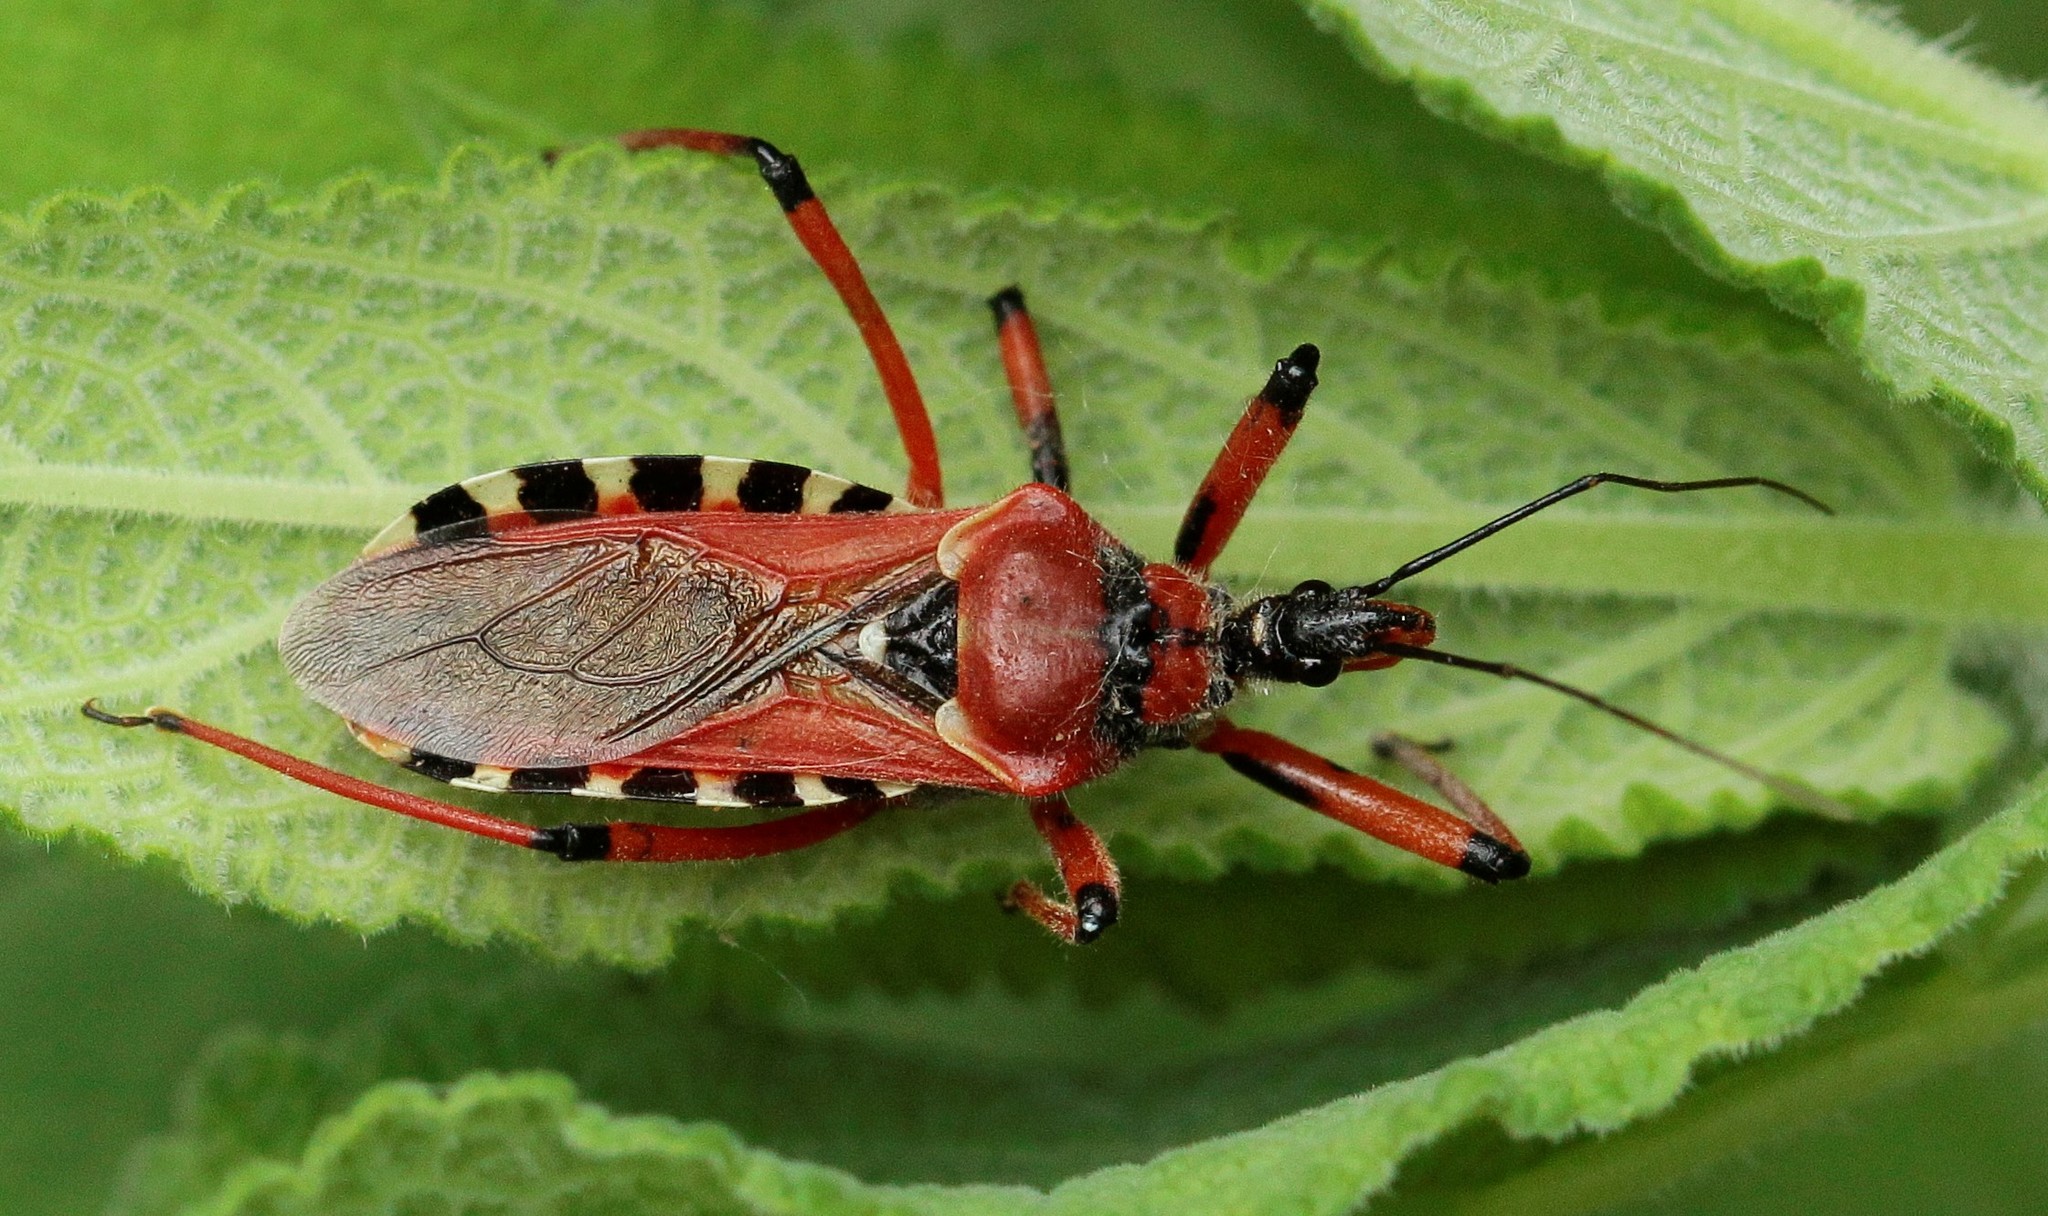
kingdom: Animalia
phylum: Arthropoda
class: Insecta
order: Hemiptera
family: Reduviidae
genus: Rhynocoris
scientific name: Rhynocoris iracundus
